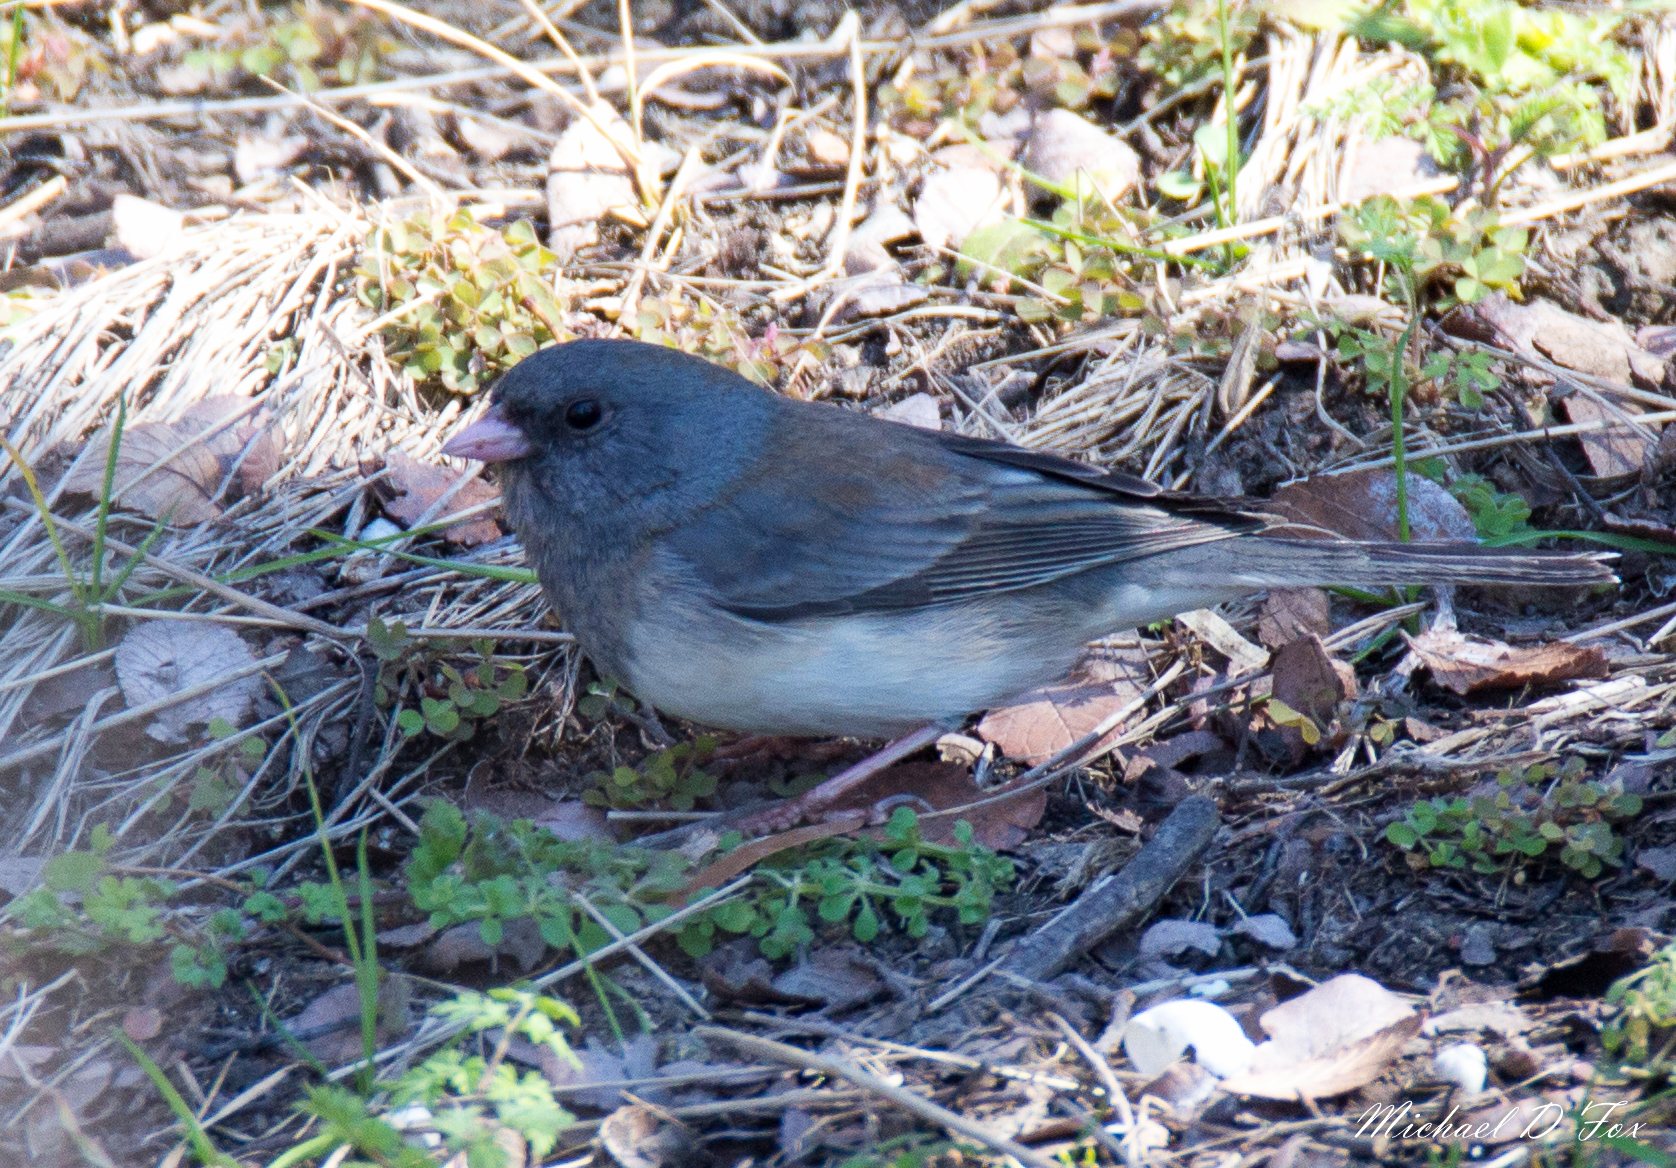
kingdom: Animalia
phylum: Chordata
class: Aves
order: Passeriformes
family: Passerellidae
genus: Junco
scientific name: Junco hyemalis
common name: Dark-eyed junco
